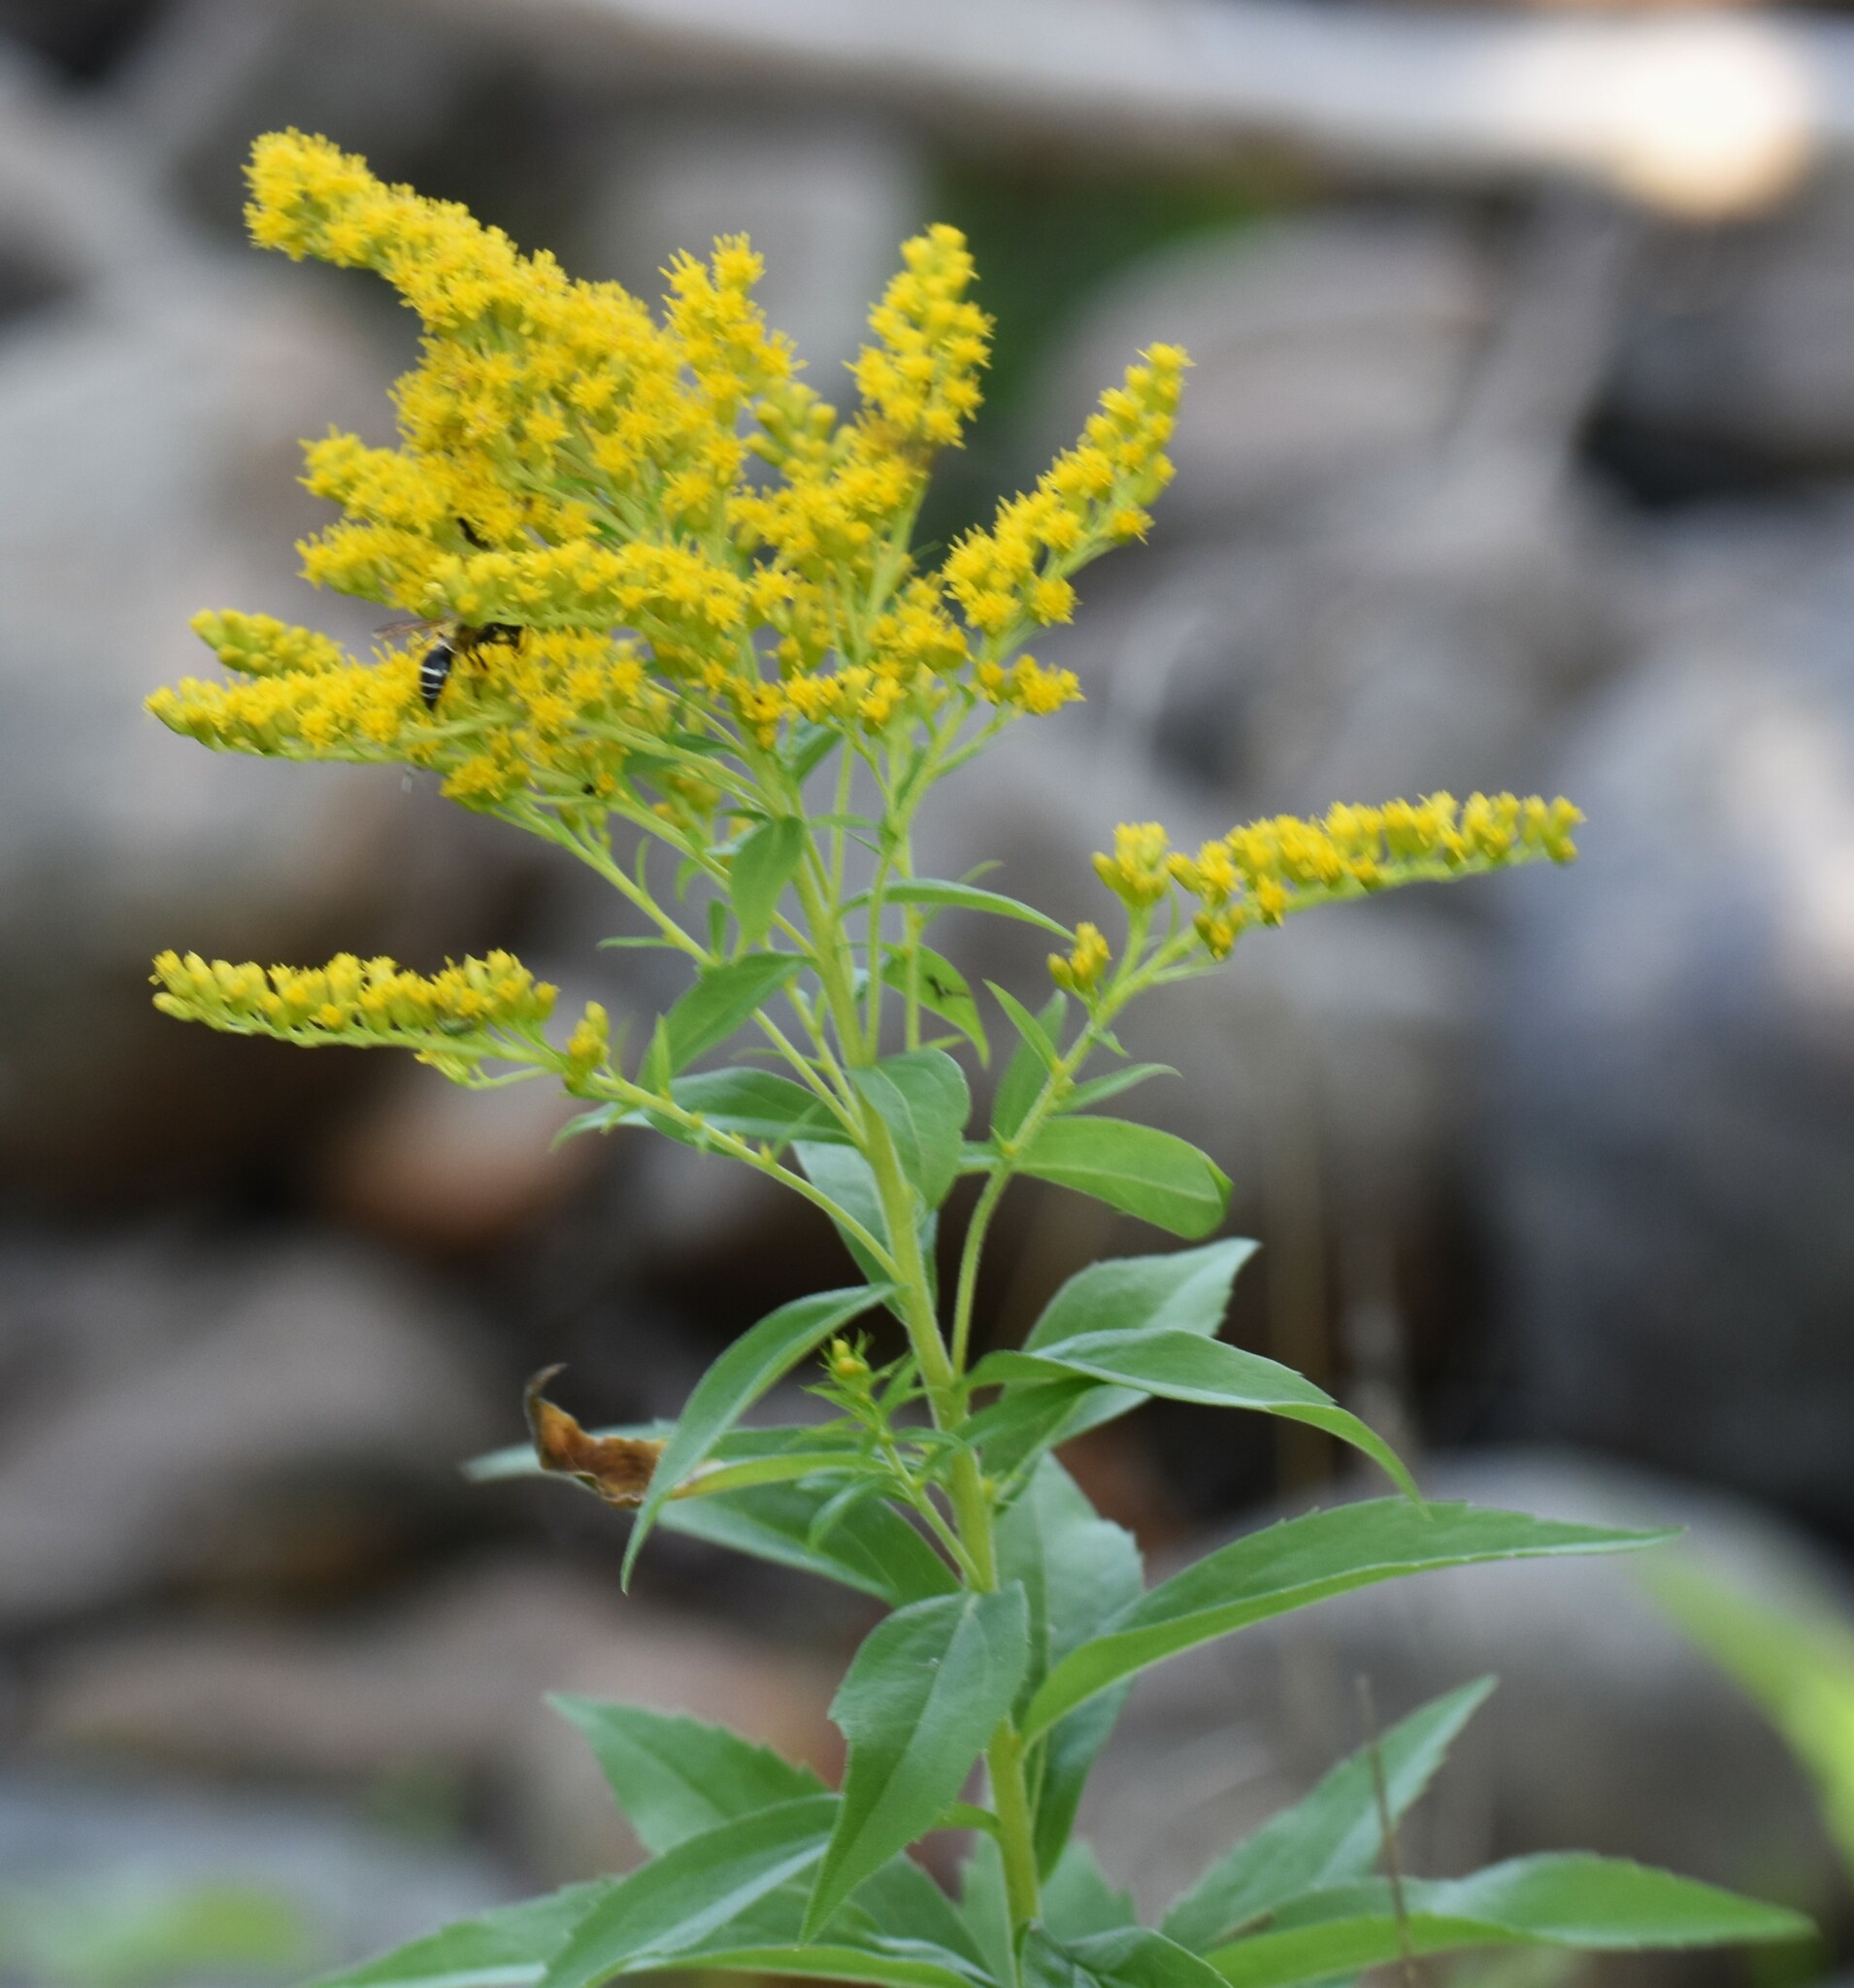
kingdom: Plantae
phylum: Tracheophyta
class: Magnoliopsida
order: Asterales
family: Asteraceae
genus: Solidago
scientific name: Solidago canadensis
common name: Canada goldenrod
